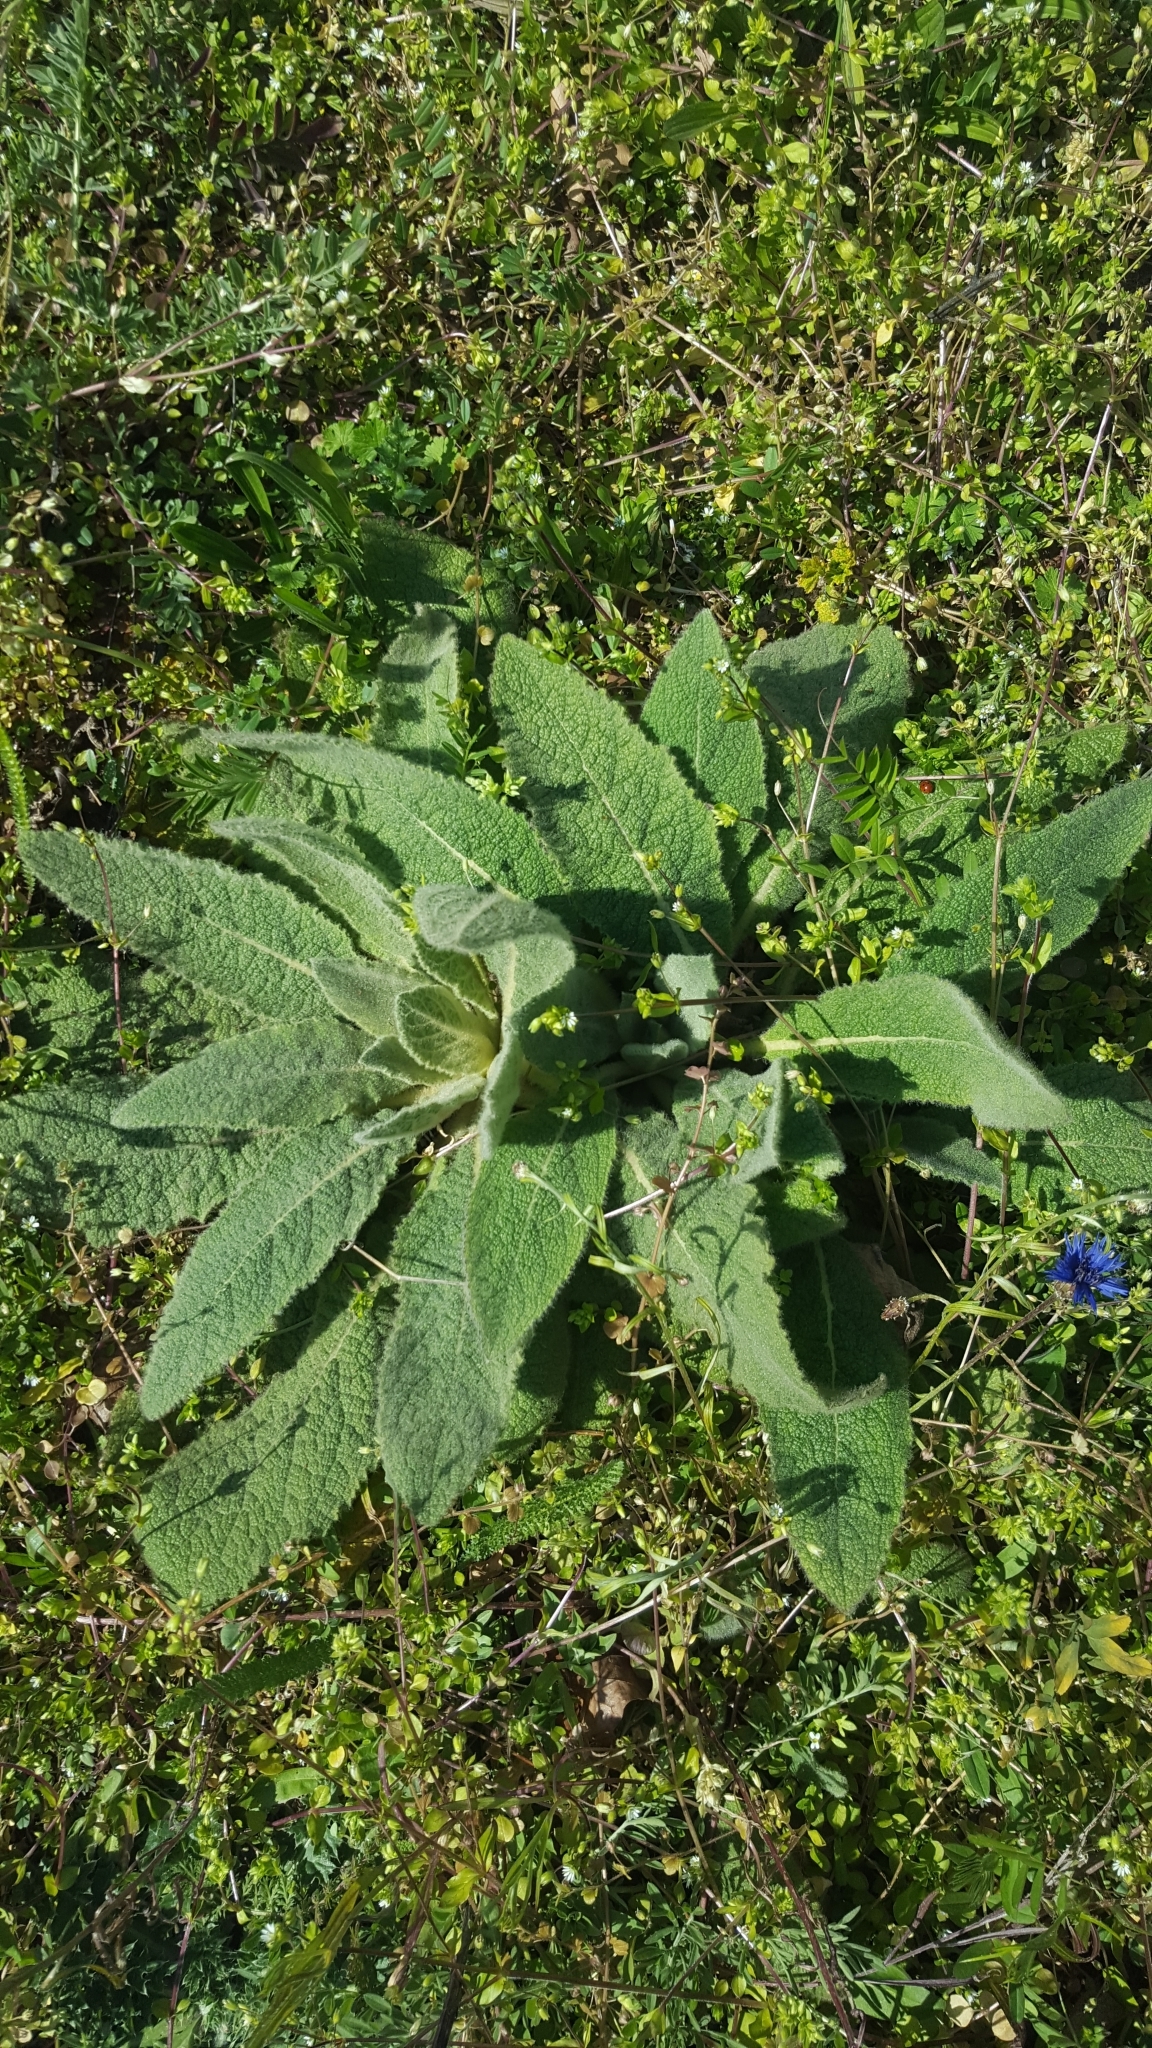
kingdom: Plantae
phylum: Tracheophyta
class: Magnoliopsida
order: Asterales
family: Asteraceae
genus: Centaurea
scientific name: Centaurea cyanus
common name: Cornflower
